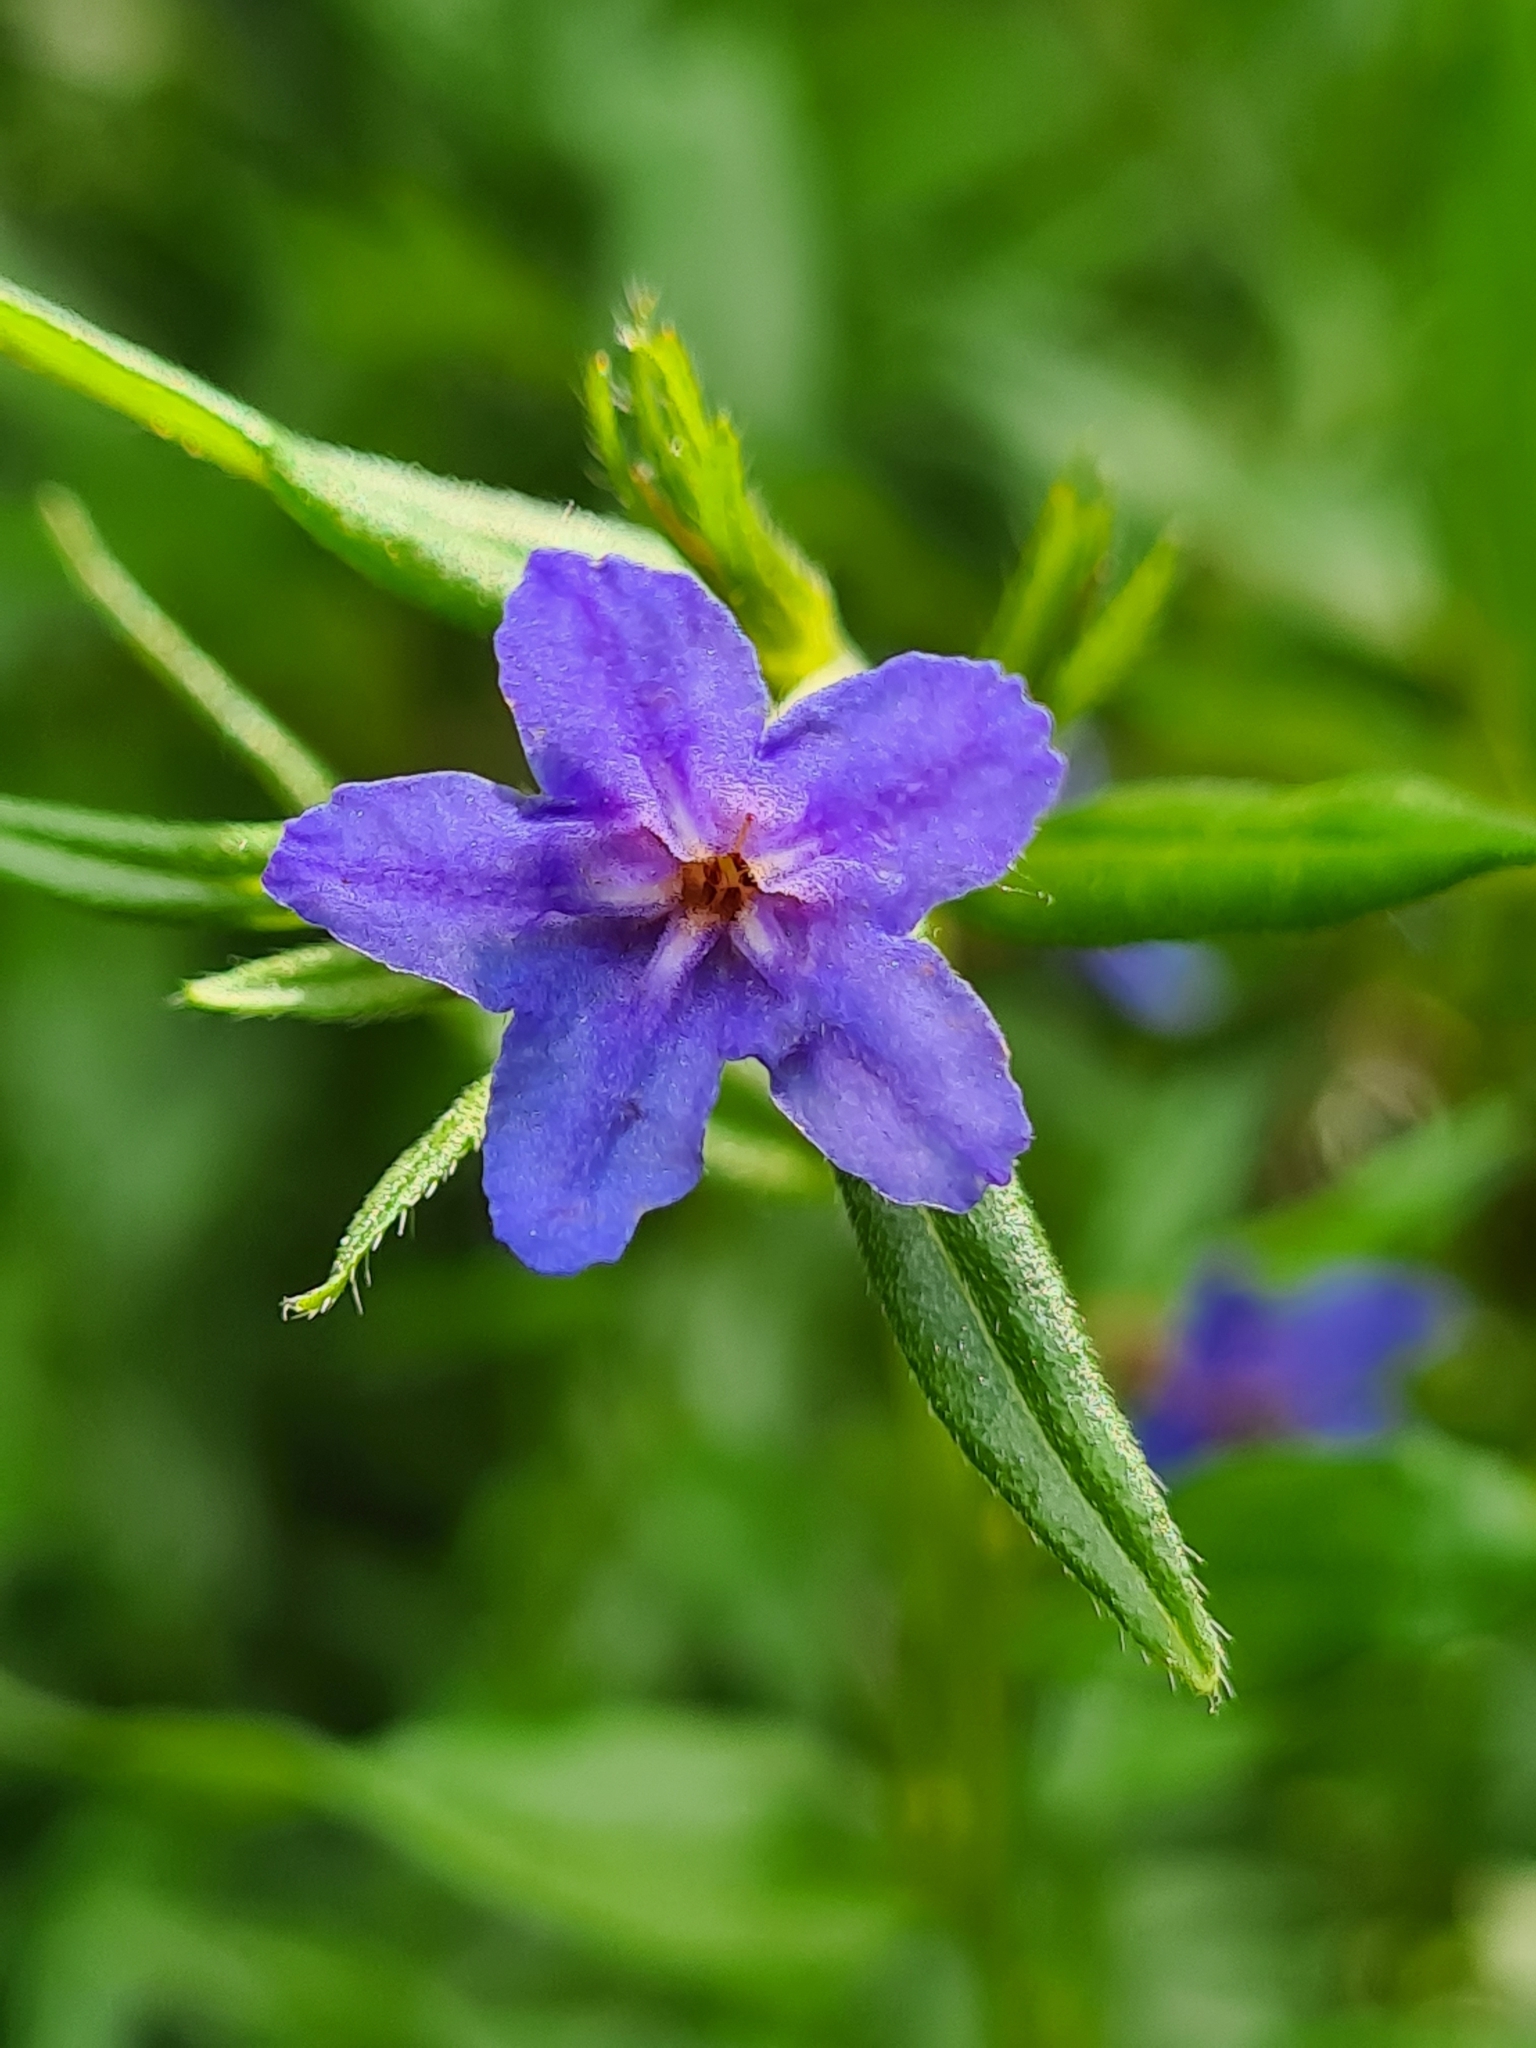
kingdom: Plantae
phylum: Tracheophyta
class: Magnoliopsida
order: Boraginales
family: Boraginaceae
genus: Aegonychon
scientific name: Aegonychon purpurocaeruleum
